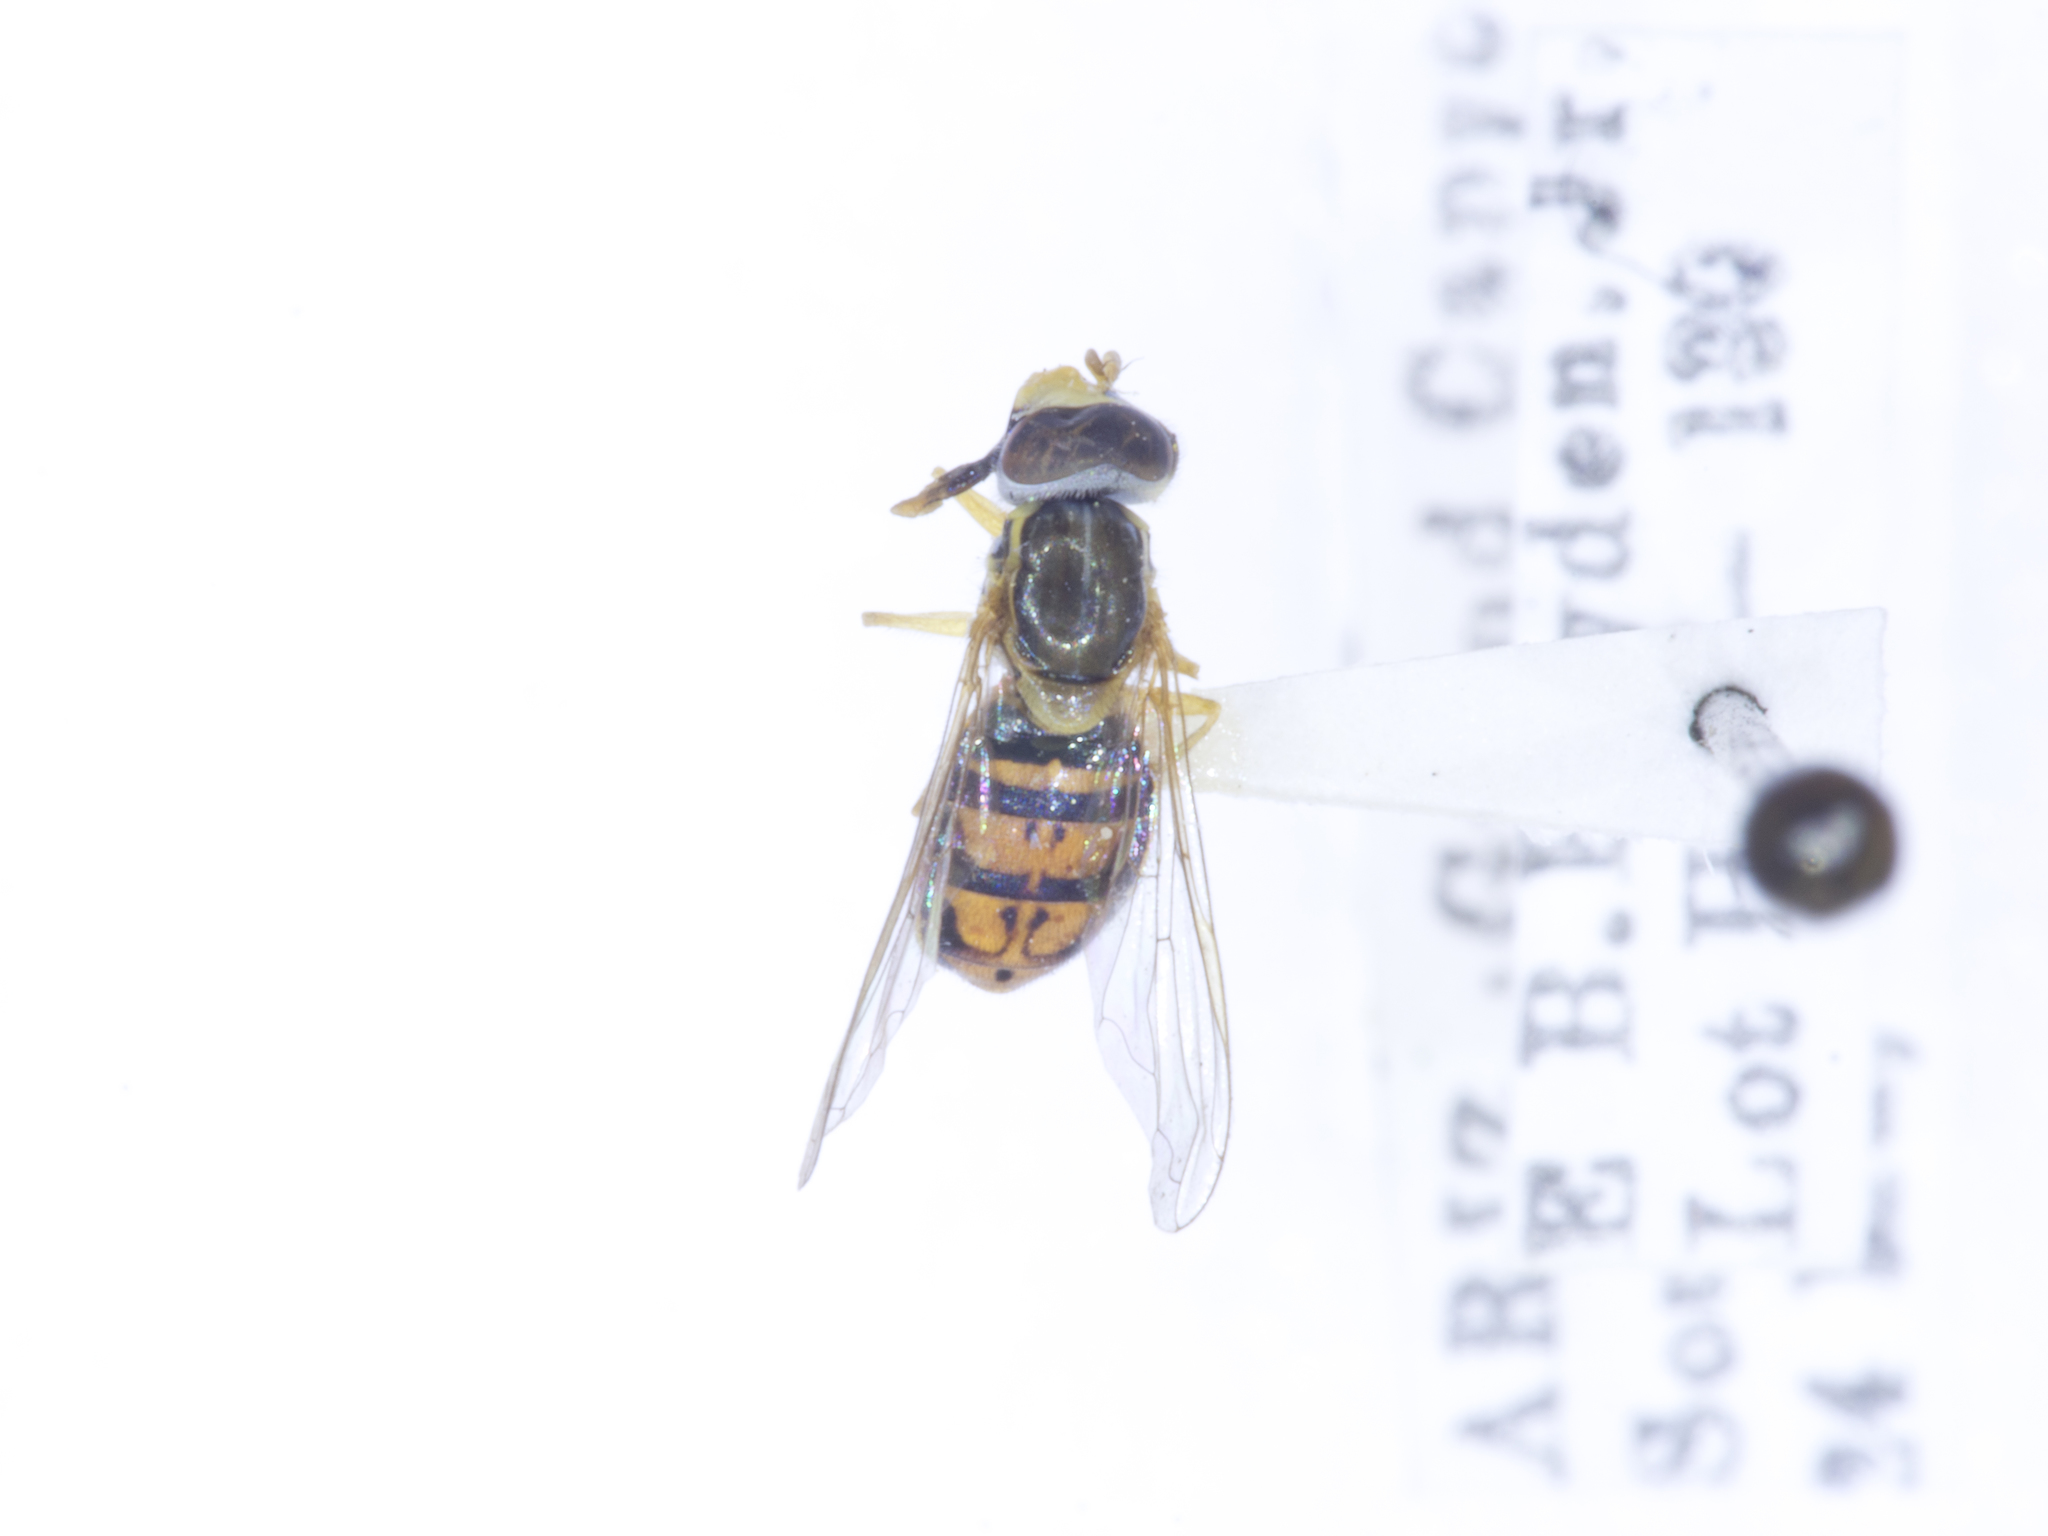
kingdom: Animalia
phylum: Arthropoda
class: Insecta
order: Diptera
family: Syrphidae
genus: Toxomerus
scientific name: Toxomerus marginatus
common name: Syrphid fly
